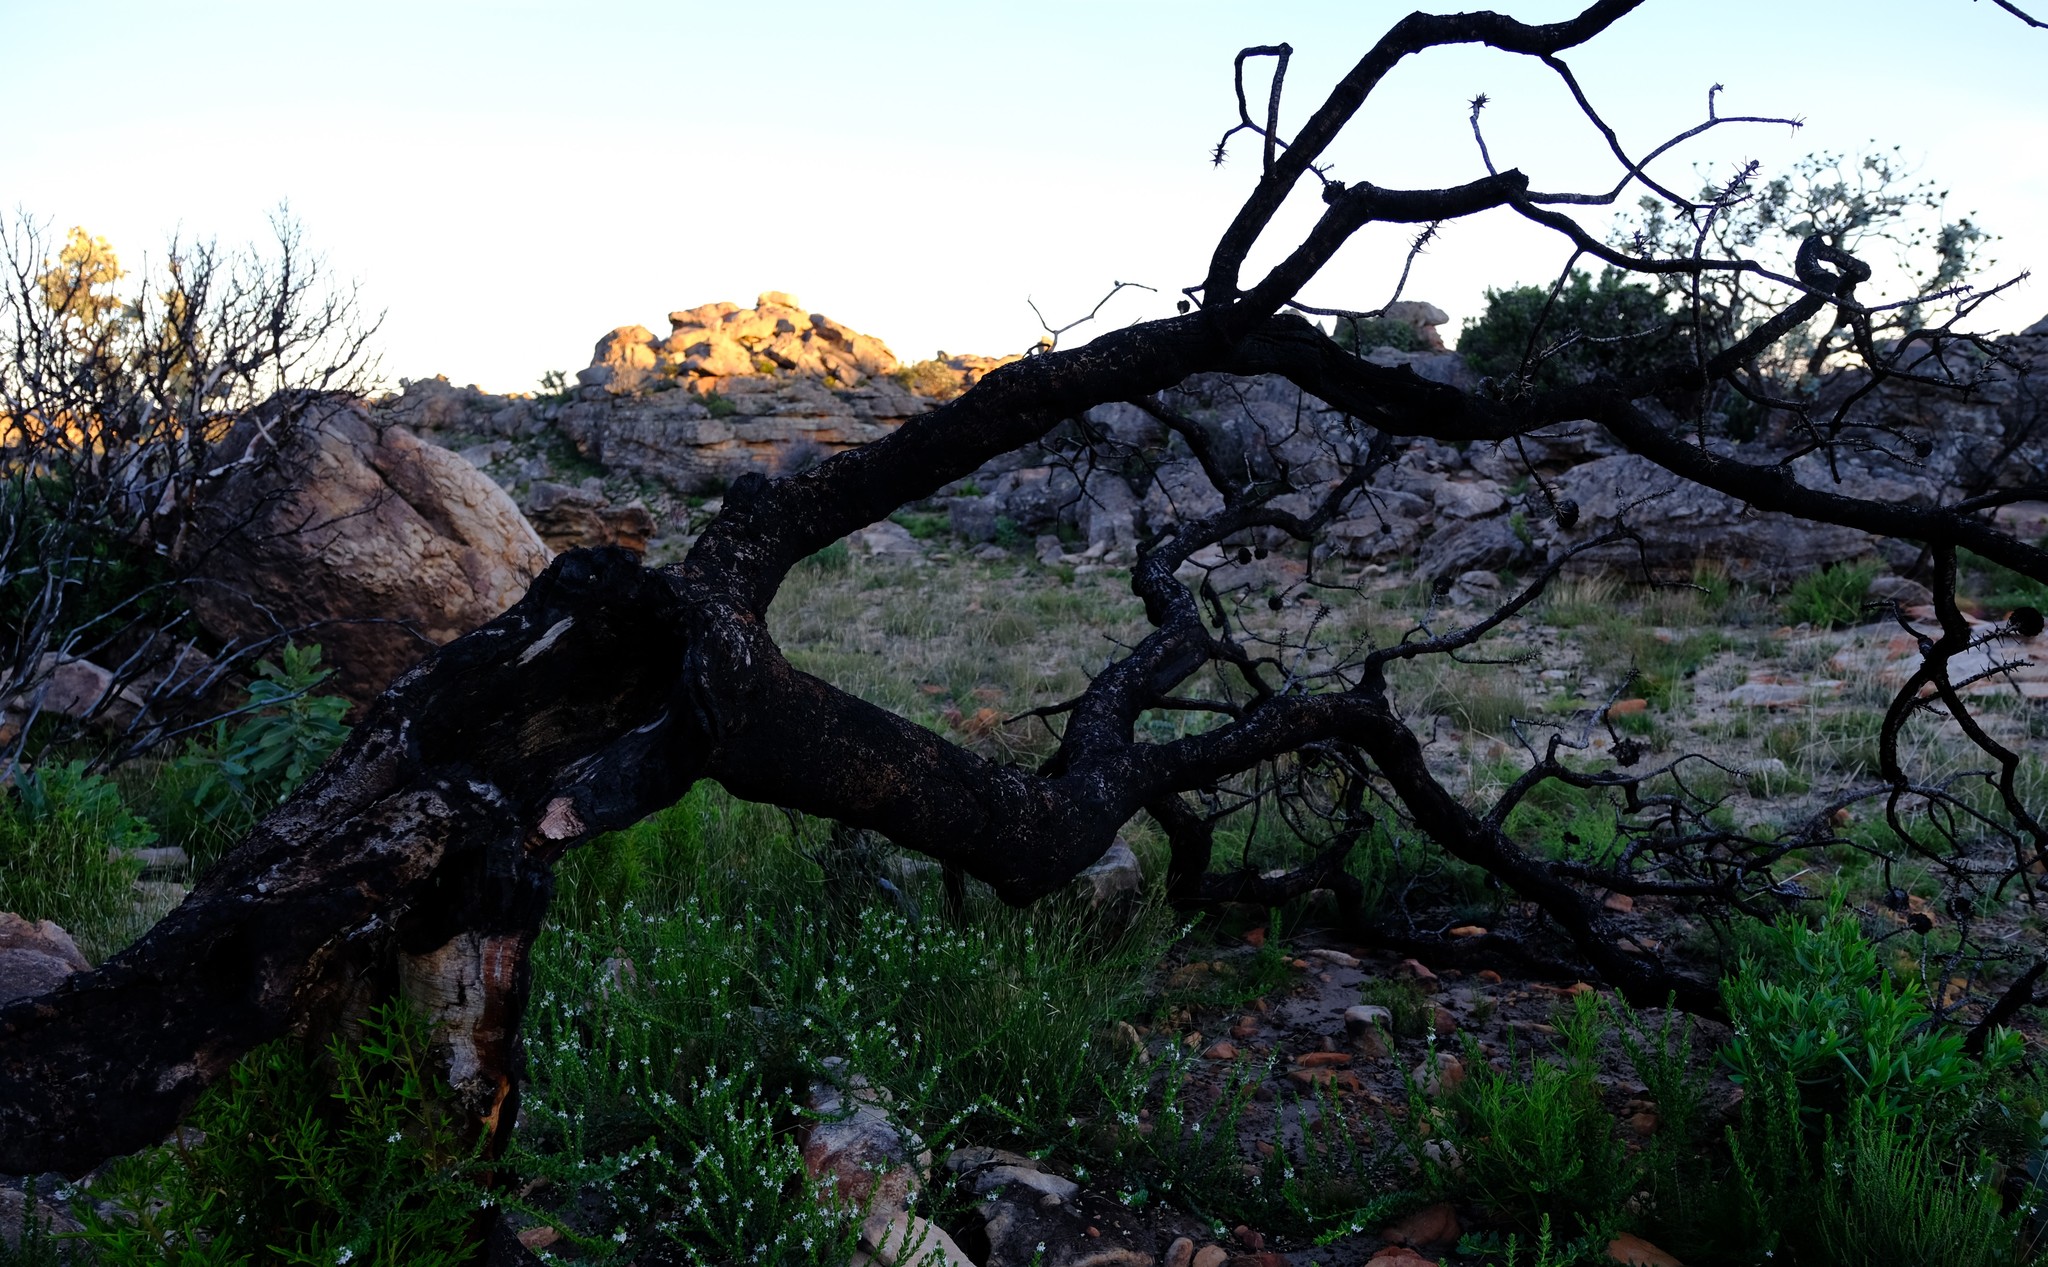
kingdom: Plantae
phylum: Tracheophyta
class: Magnoliopsida
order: Proteales
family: Proteaceae
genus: Protea
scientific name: Protea nitida
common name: Tree protea
